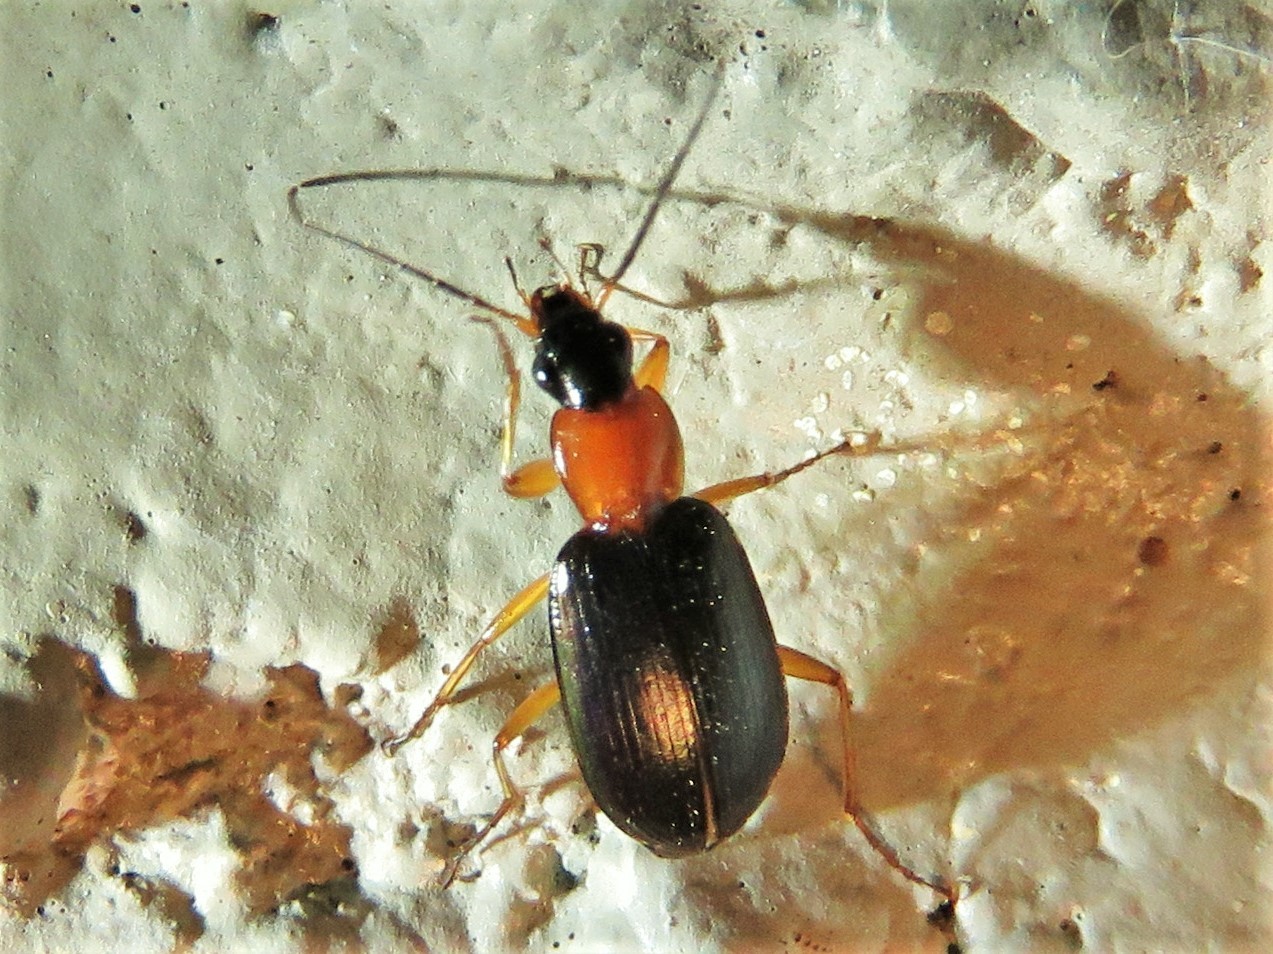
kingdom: Animalia
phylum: Arthropoda
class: Insecta
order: Coleoptera
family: Carabidae
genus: Agonum
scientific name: Agonum decorum
